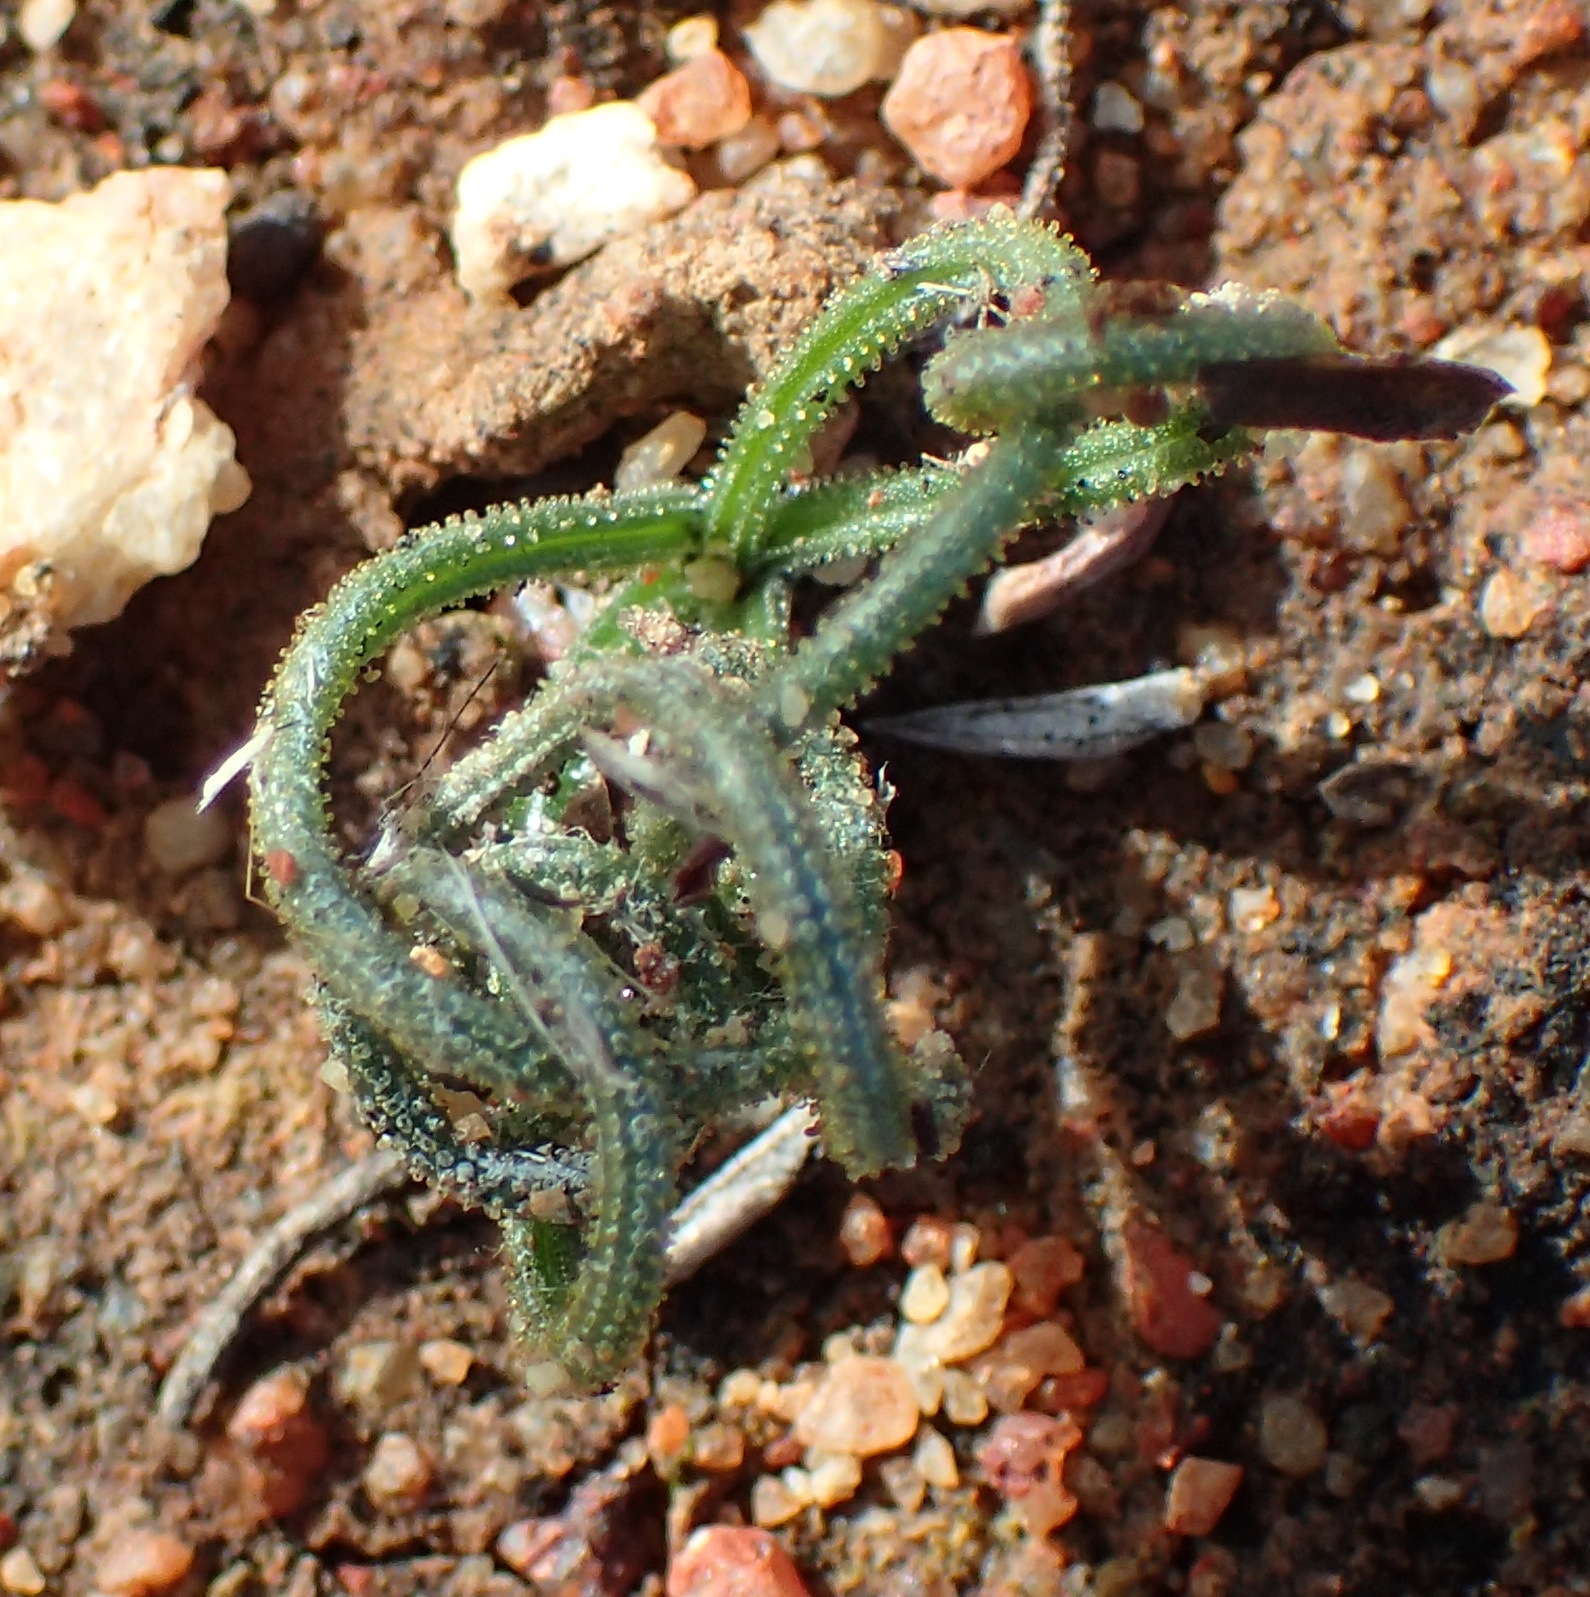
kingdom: Plantae
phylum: Tracheophyta
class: Liliopsida
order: Asparagales
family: Asparagaceae
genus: Albuca
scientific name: Albuca viscosa
